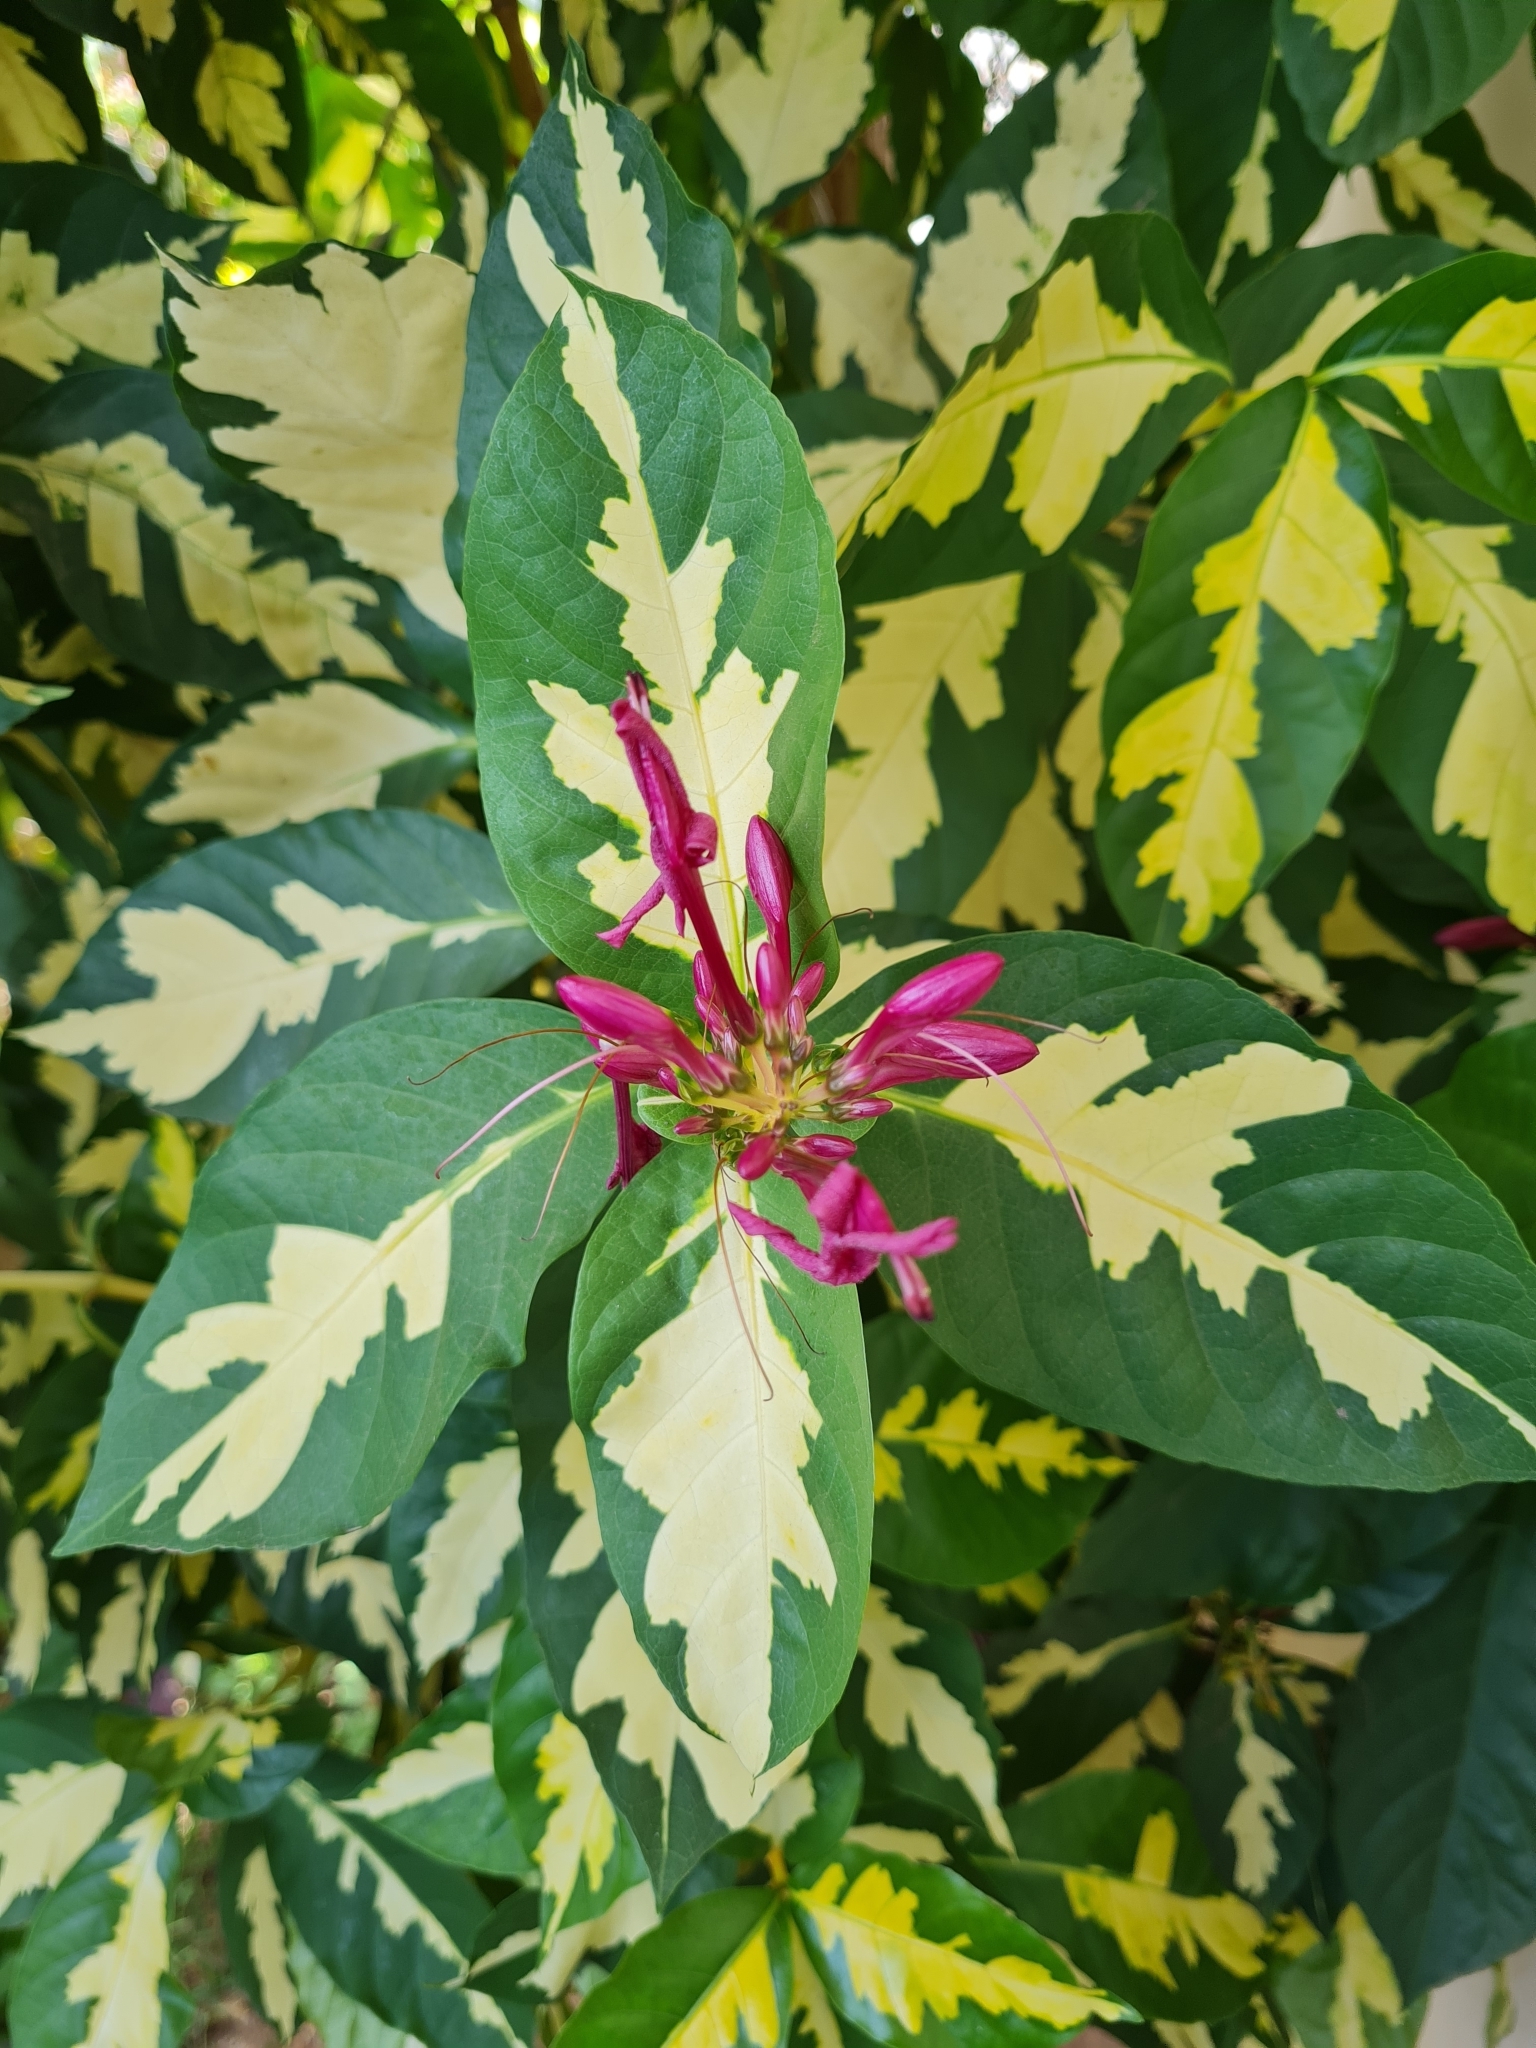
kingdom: Plantae
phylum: Tracheophyta
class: Magnoliopsida
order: Lamiales
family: Acanthaceae
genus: Graptophyllum
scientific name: Graptophyllum pictum
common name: Caricature-plant
